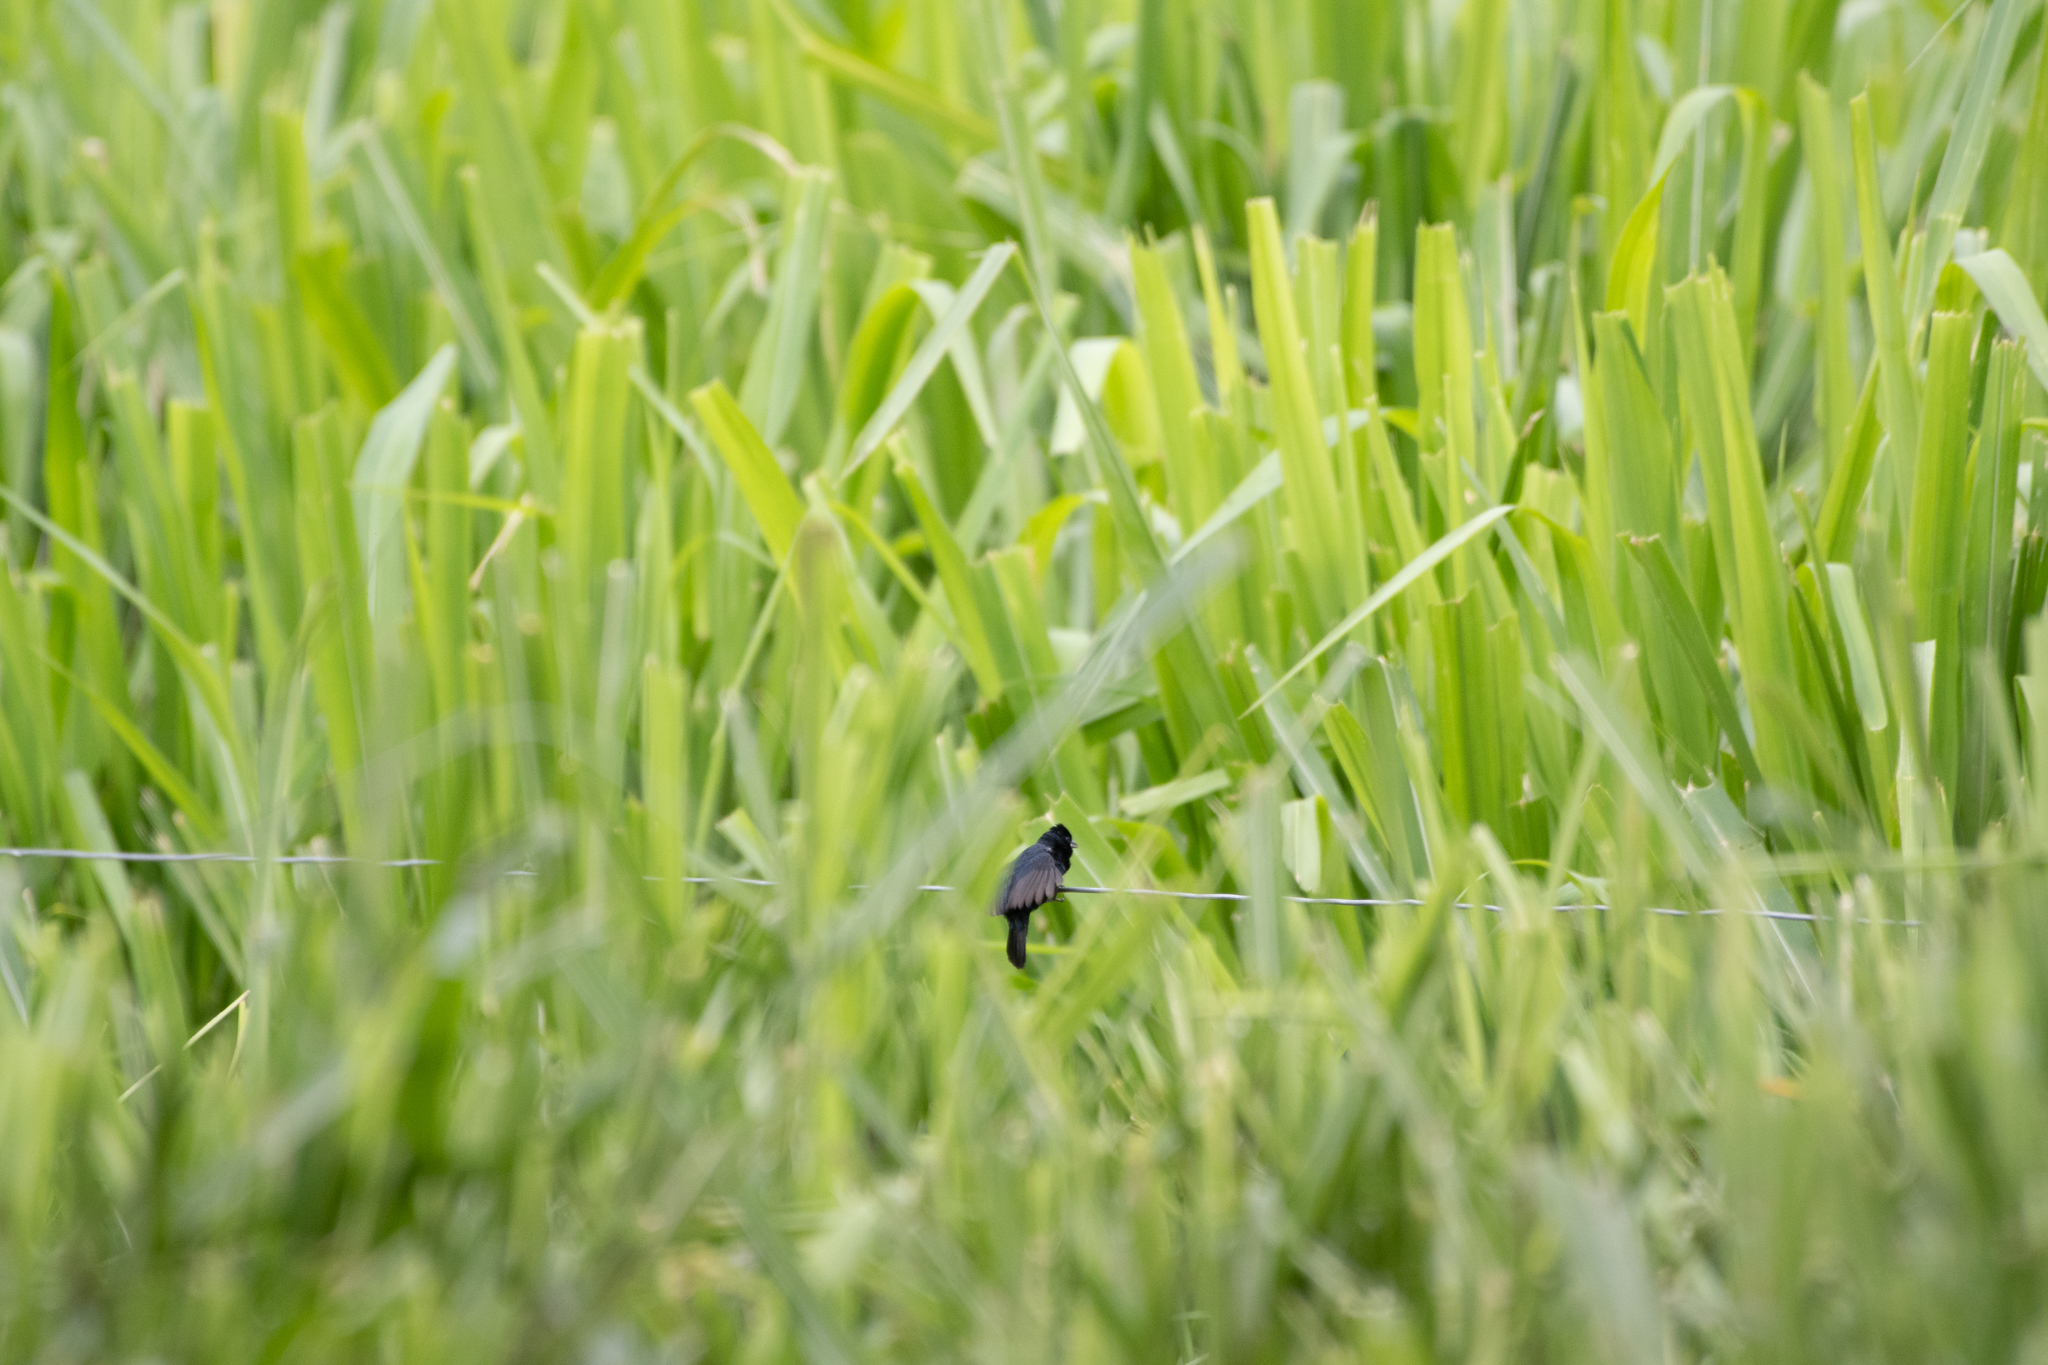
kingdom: Animalia
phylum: Chordata
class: Aves
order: Passeriformes
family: Thraupidae
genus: Volatinia
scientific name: Volatinia jacarina
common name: Blue-black grassquit
